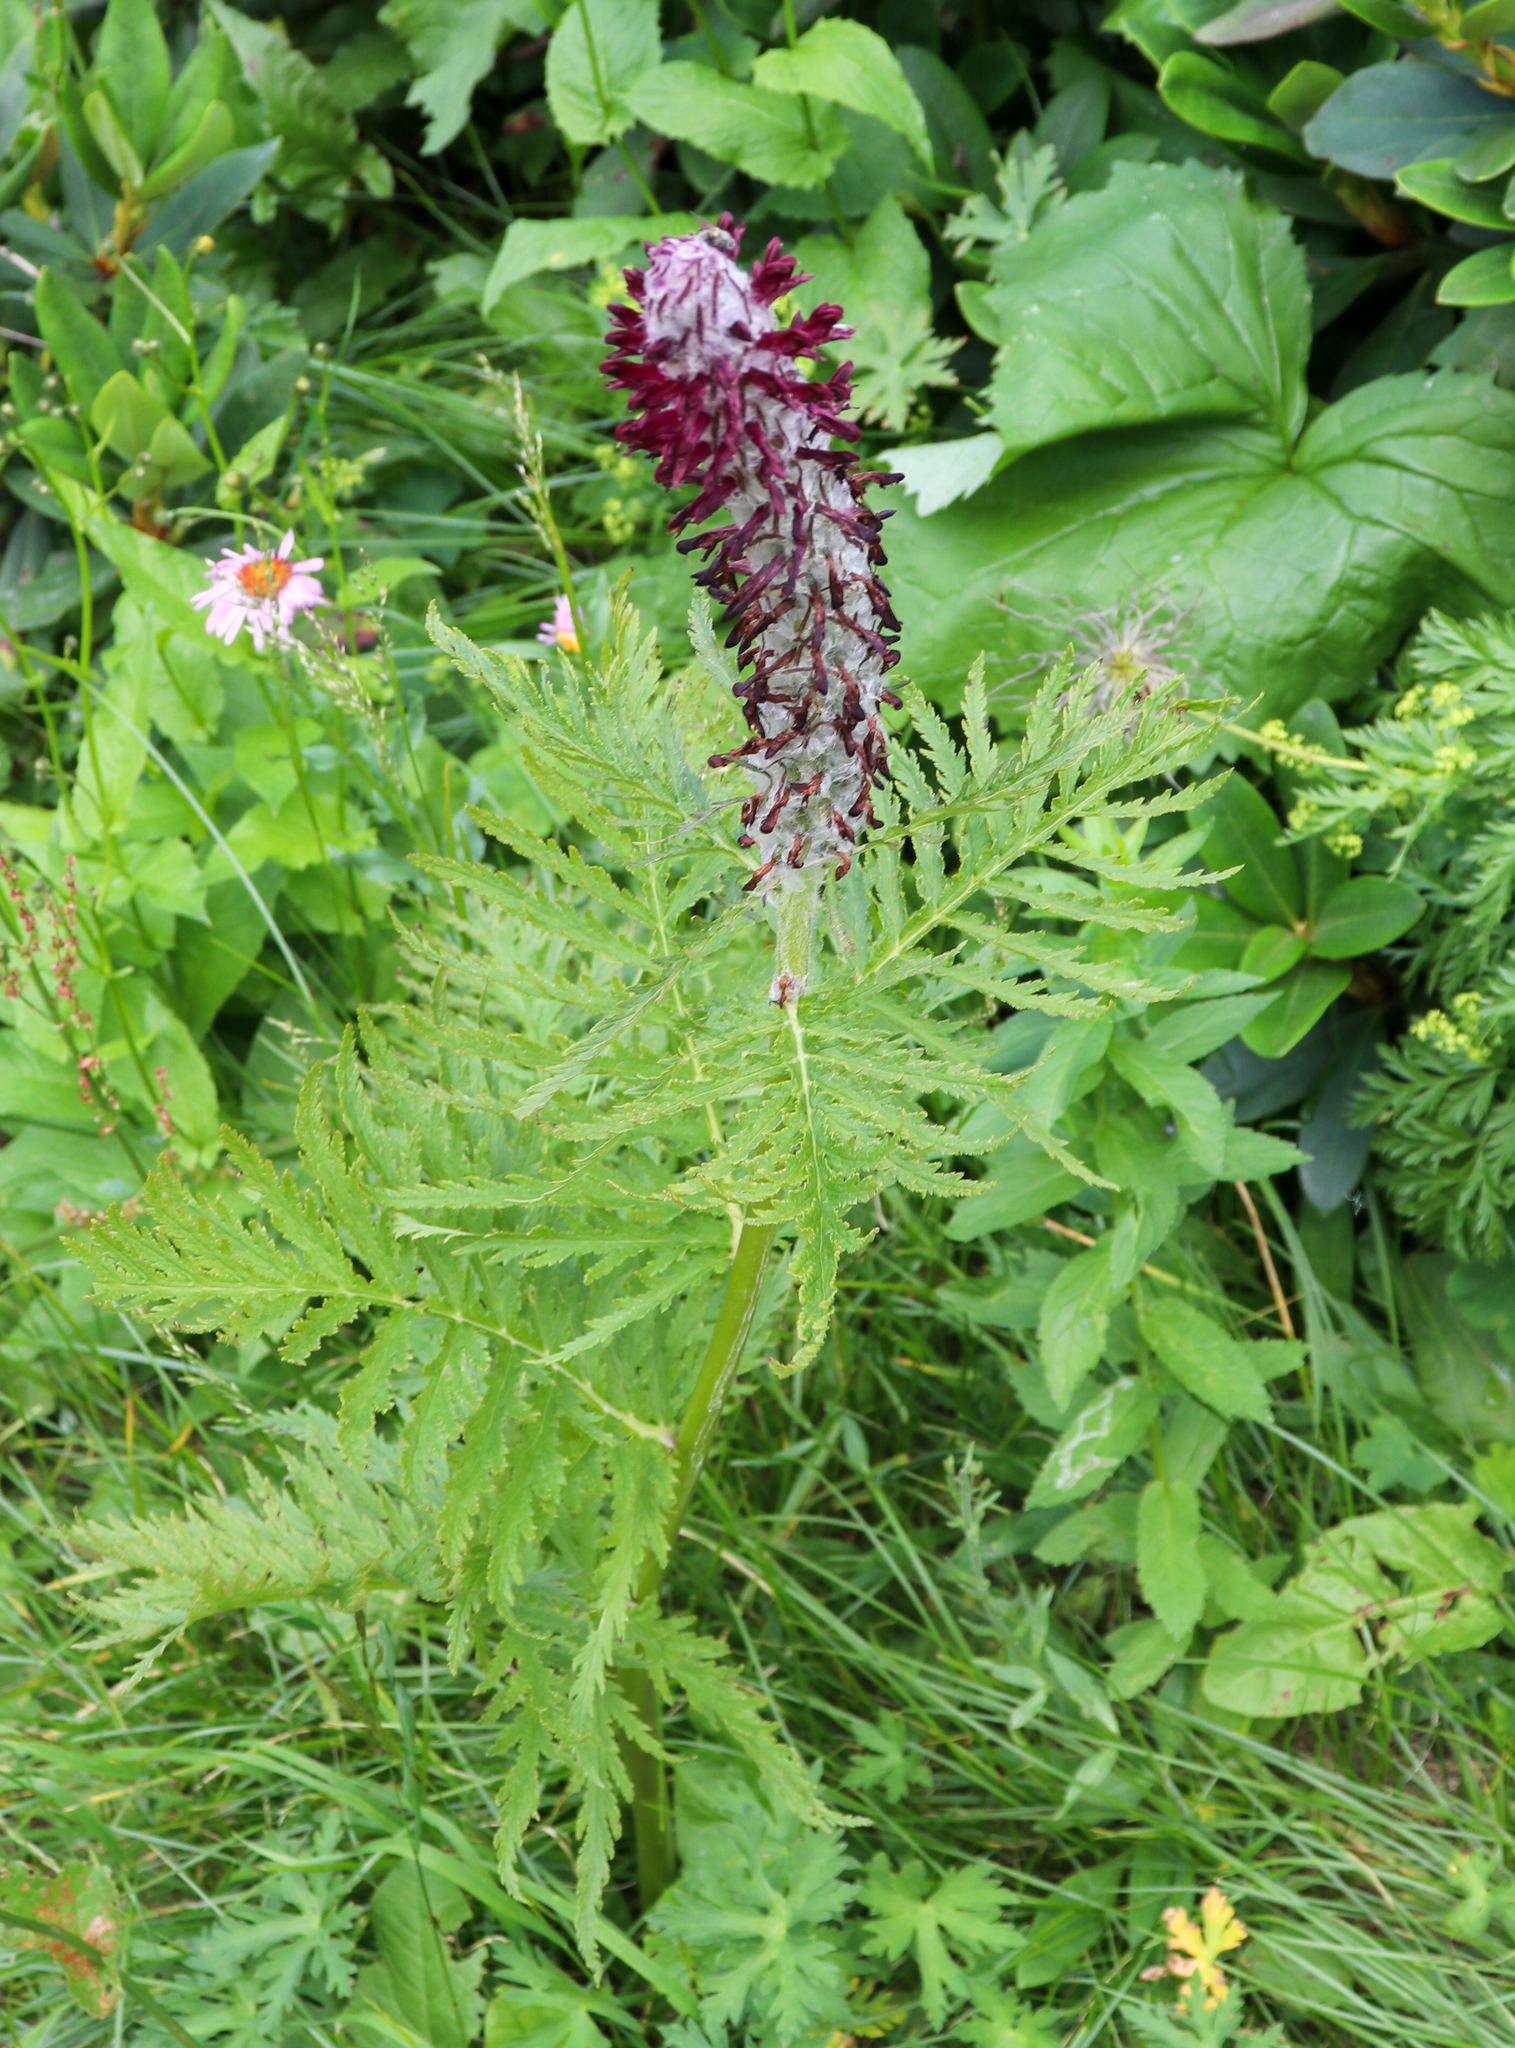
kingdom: Plantae
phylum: Tracheophyta
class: Magnoliopsida
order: Lamiales
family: Orobanchaceae
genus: Pedicularis
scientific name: Pedicularis atropurpurea
